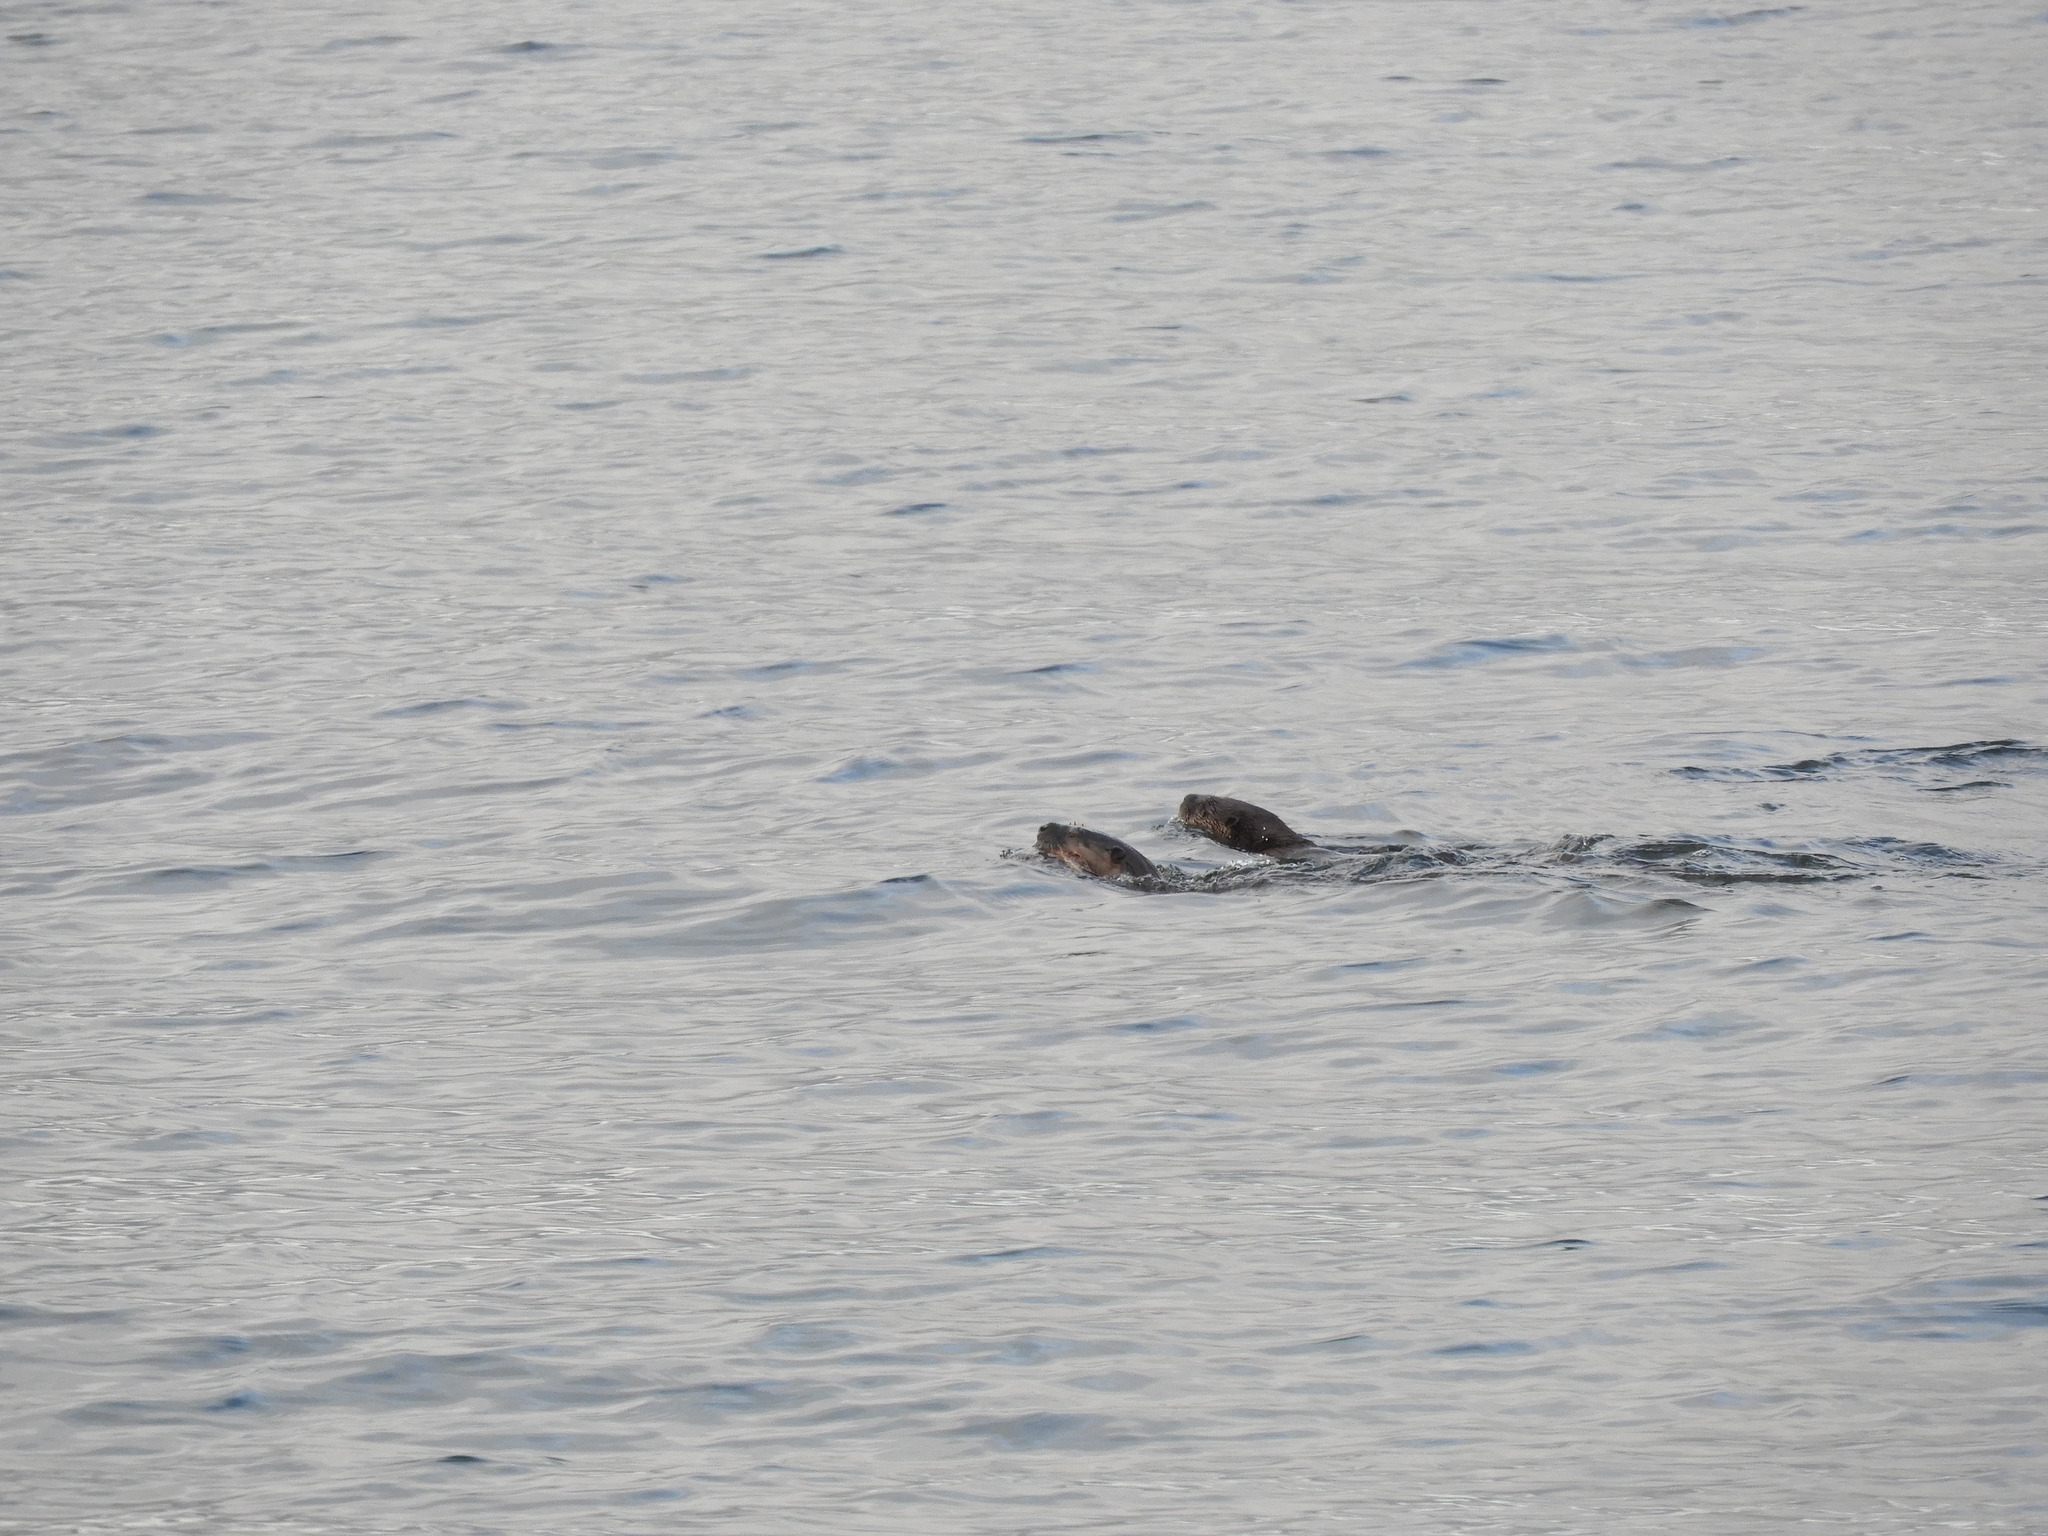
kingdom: Animalia
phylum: Chordata
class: Mammalia
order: Carnivora
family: Mustelidae
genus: Lontra
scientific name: Lontra canadensis
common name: North american river otter
